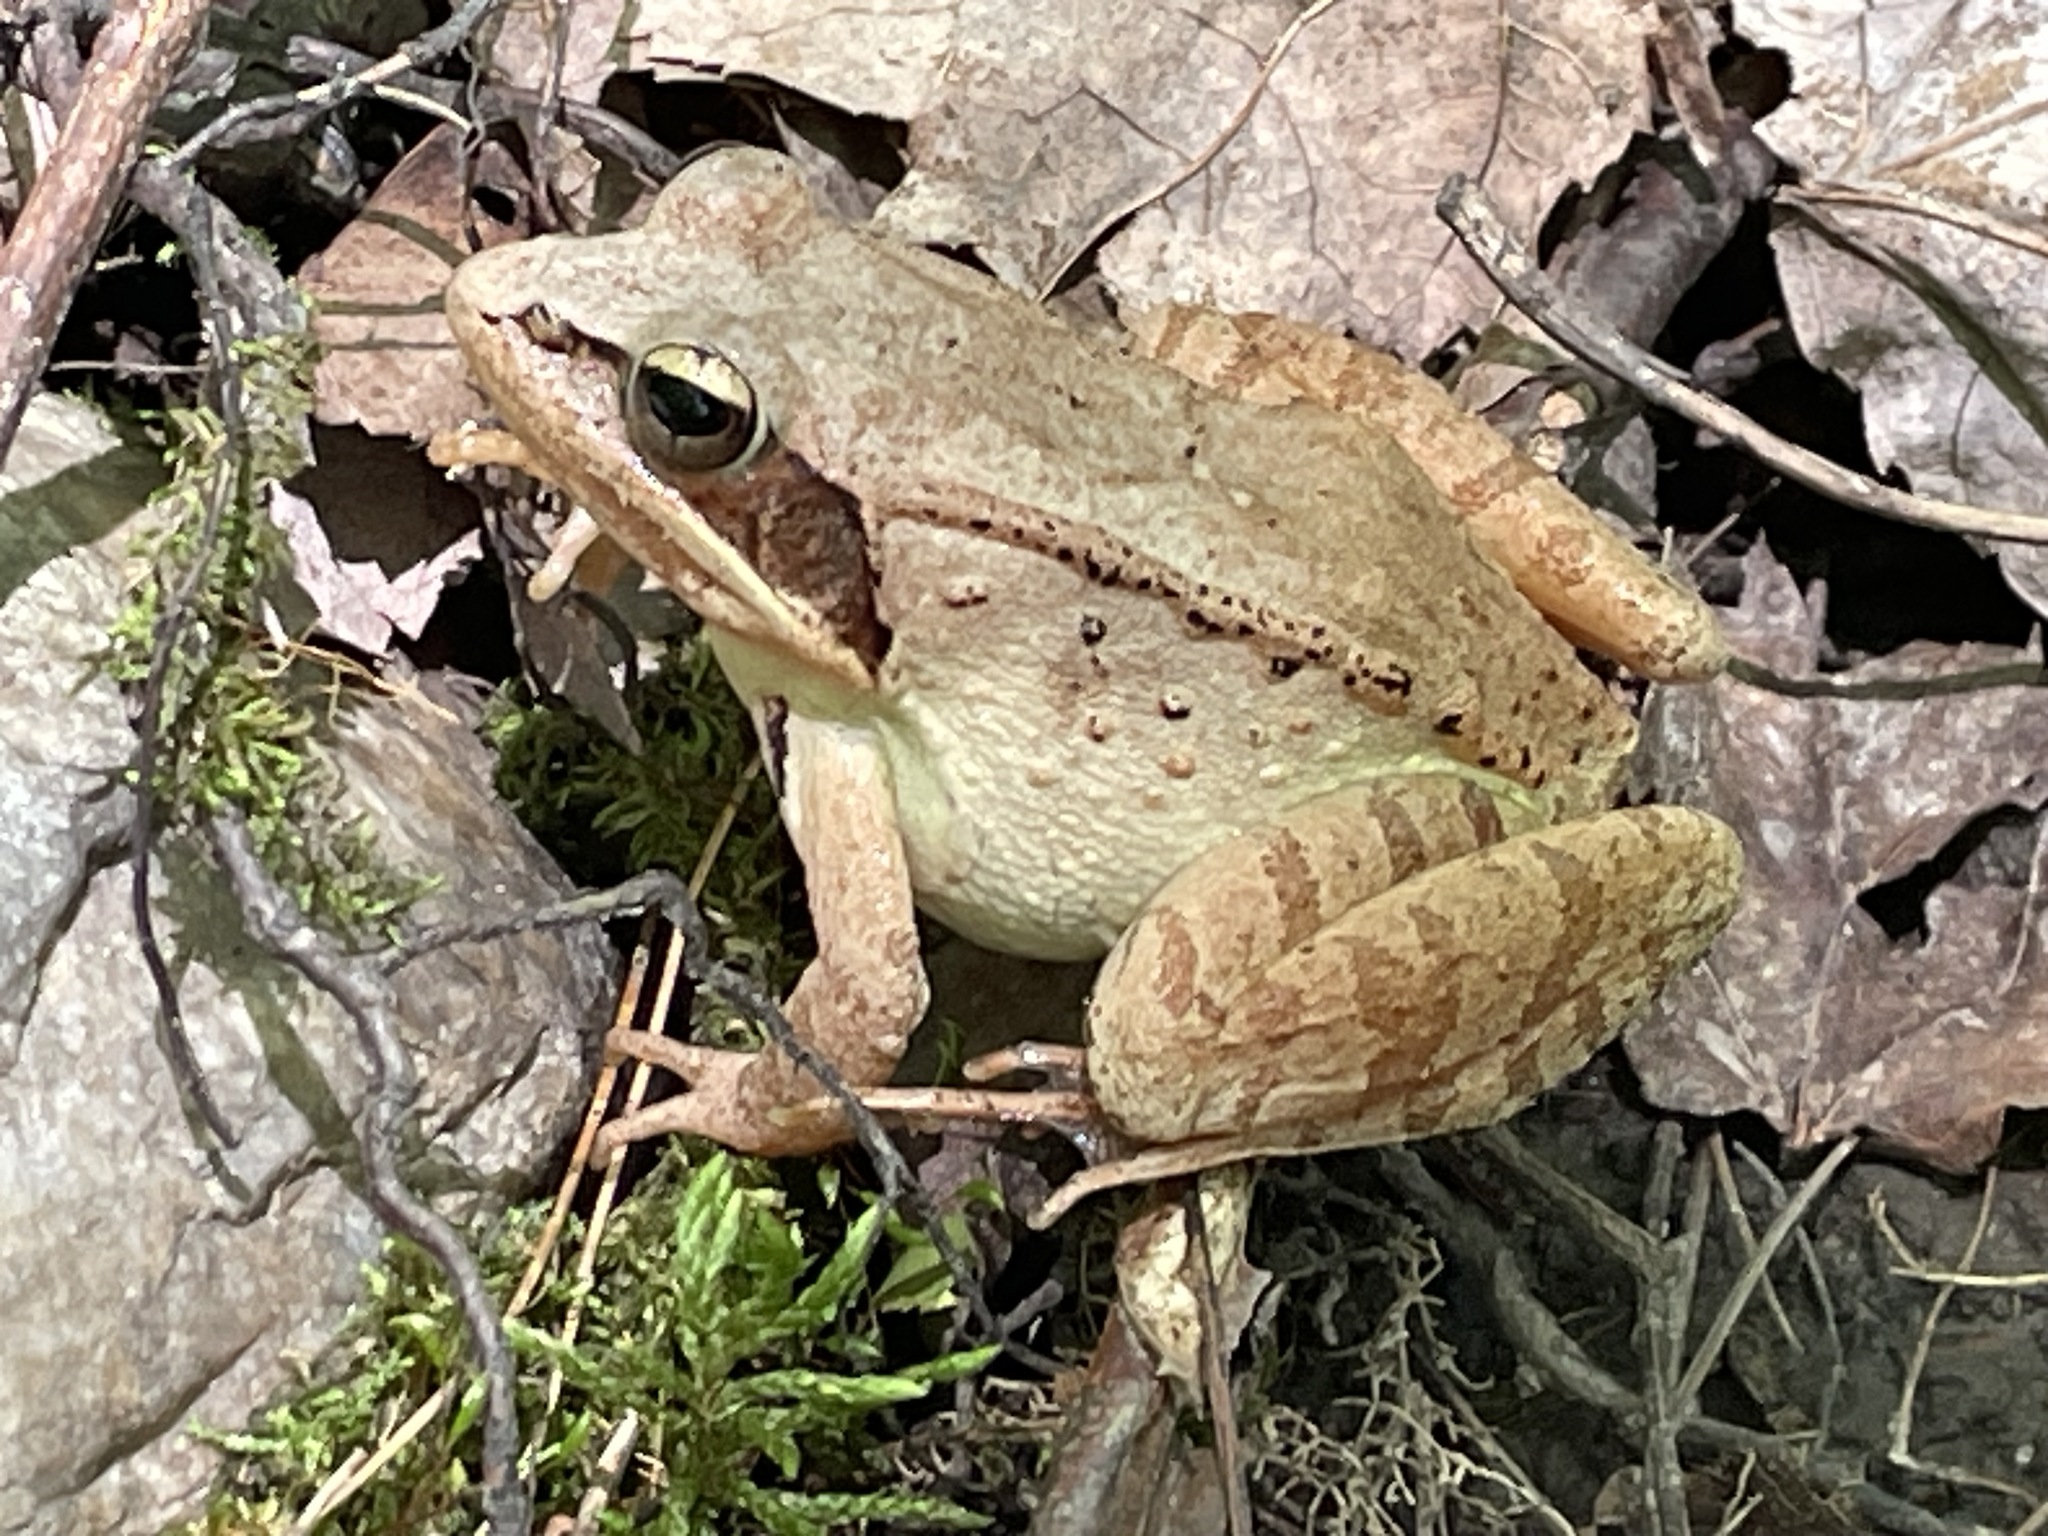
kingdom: Animalia
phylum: Chordata
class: Amphibia
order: Anura
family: Ranidae
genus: Lithobates
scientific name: Lithobates sylvaticus
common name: Wood frog
